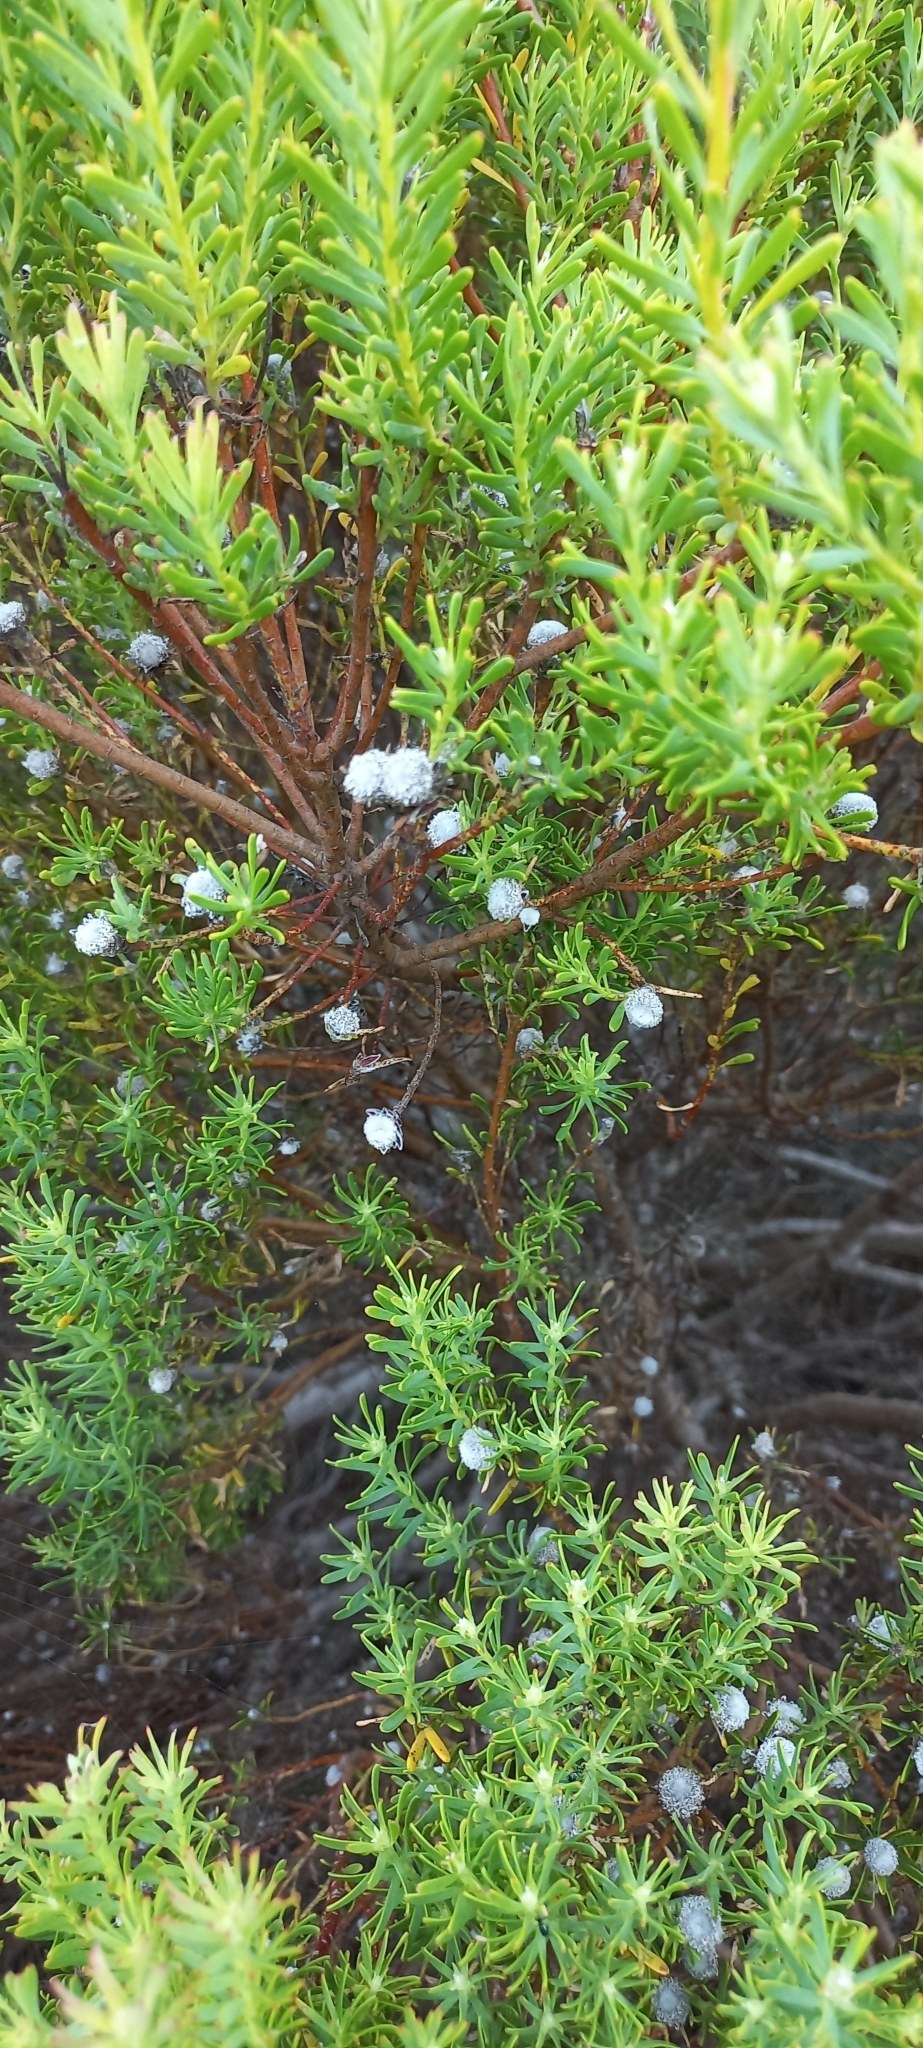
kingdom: Plantae
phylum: Tracheophyta
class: Magnoliopsida
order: Proteales
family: Proteaceae
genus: Leucadendron
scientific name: Leucadendron linifolium
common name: Line-leaf conebush
